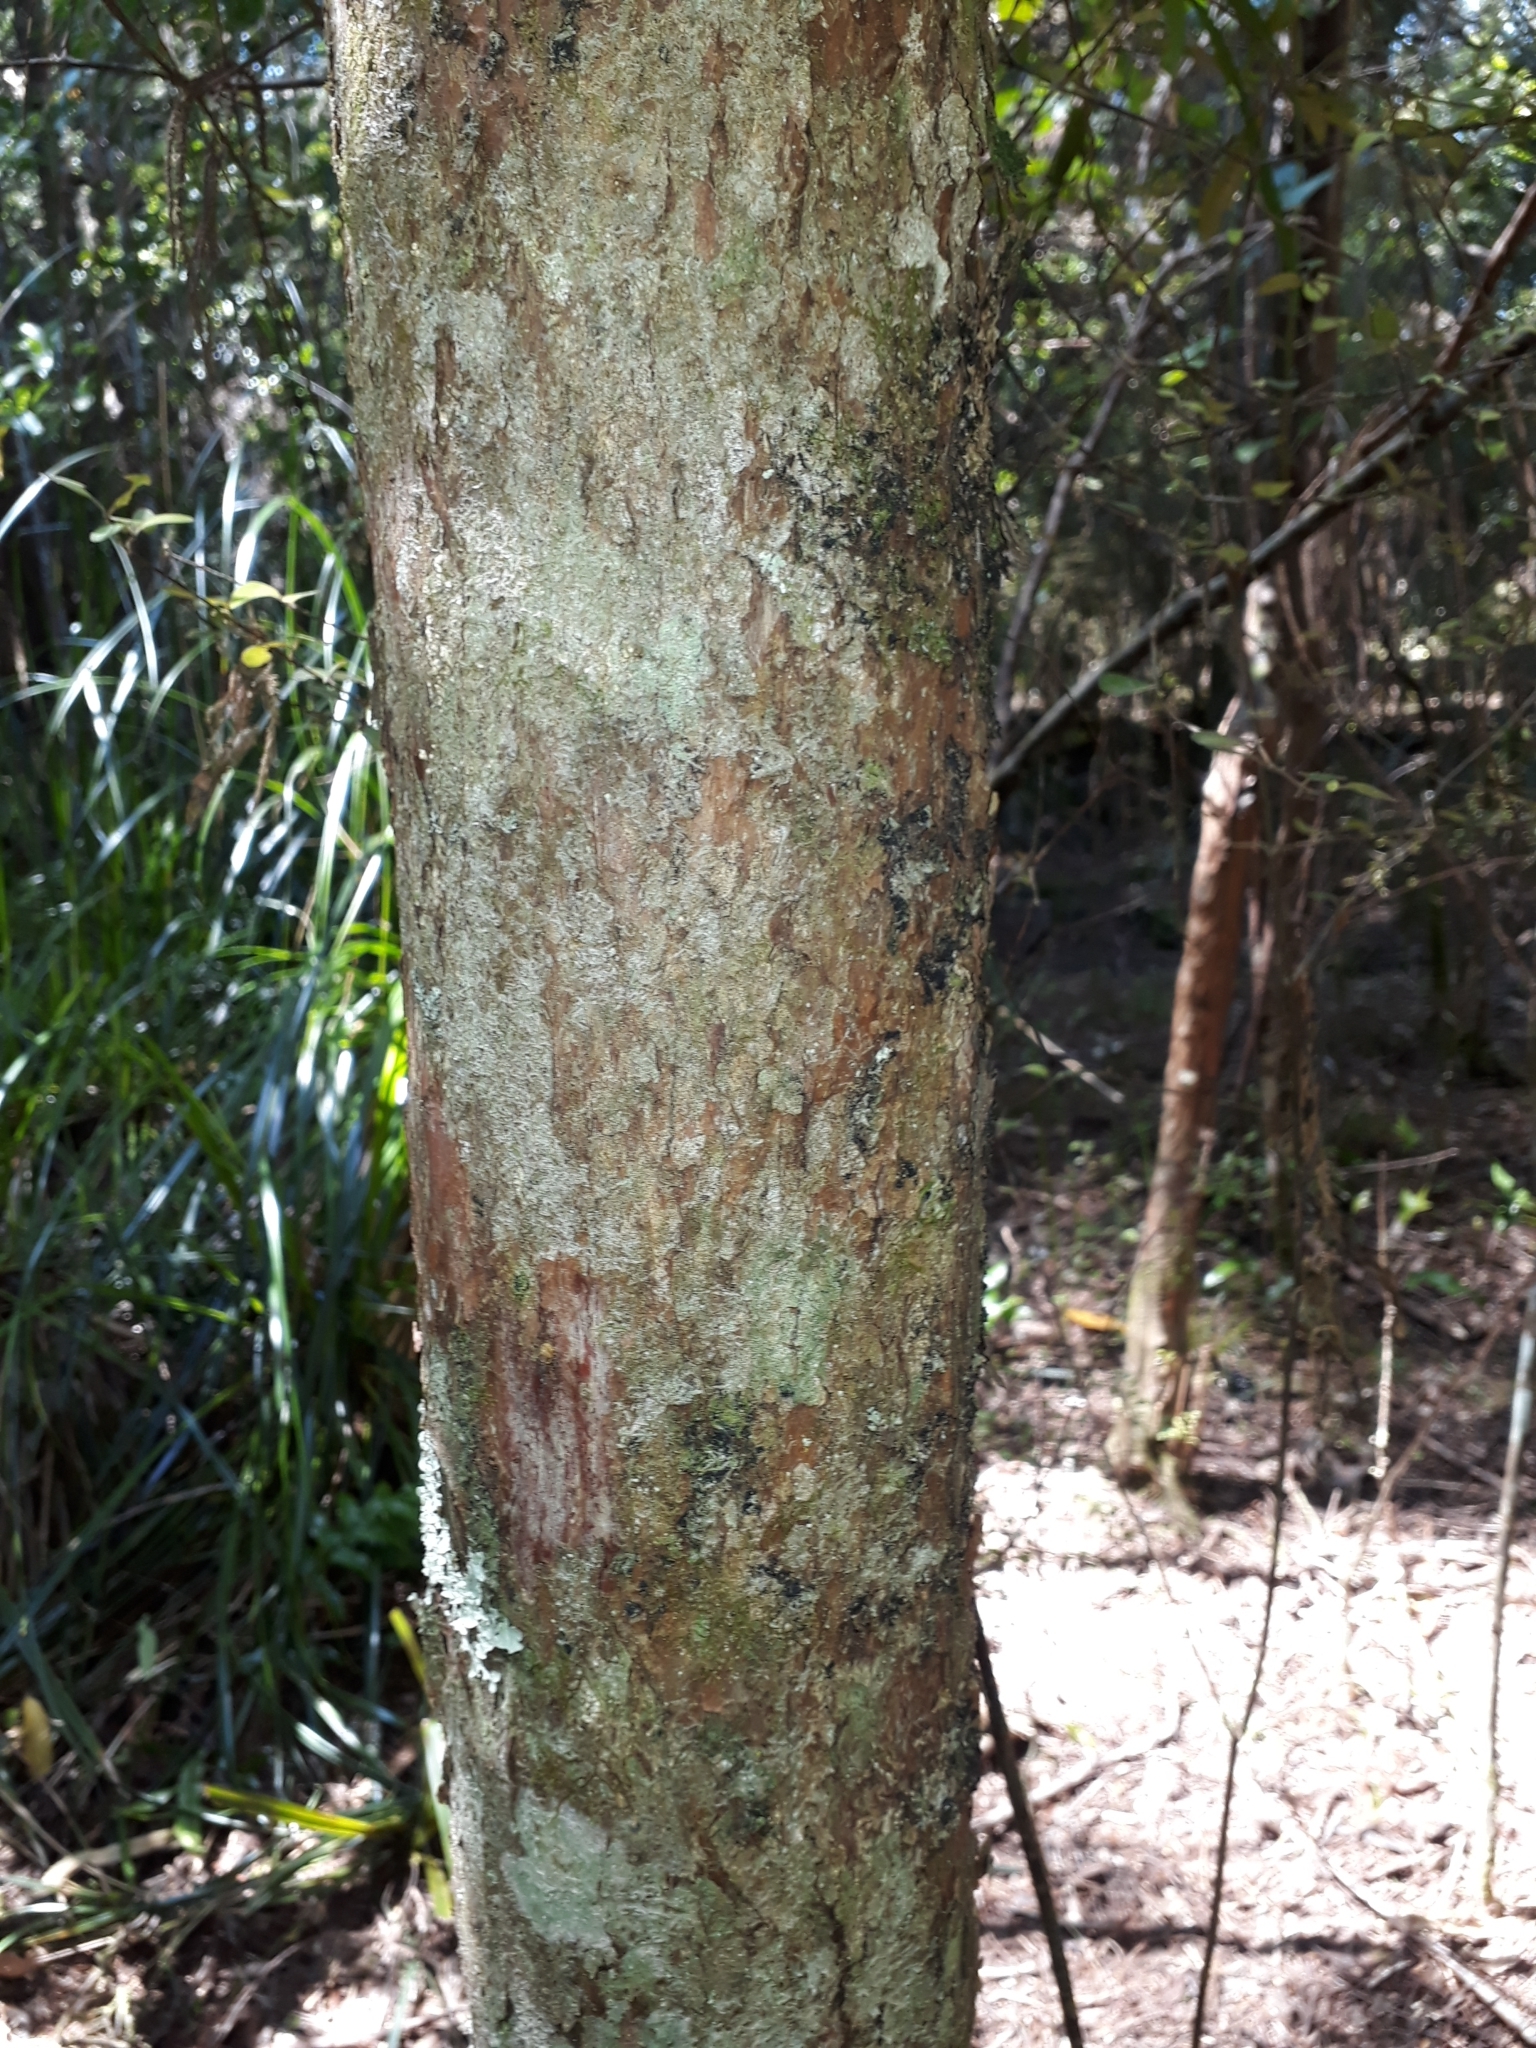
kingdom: Plantae
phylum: Tracheophyta
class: Pinopsida
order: Pinales
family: Podocarpaceae
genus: Podocarpus
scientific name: Podocarpus totara
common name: Totara
